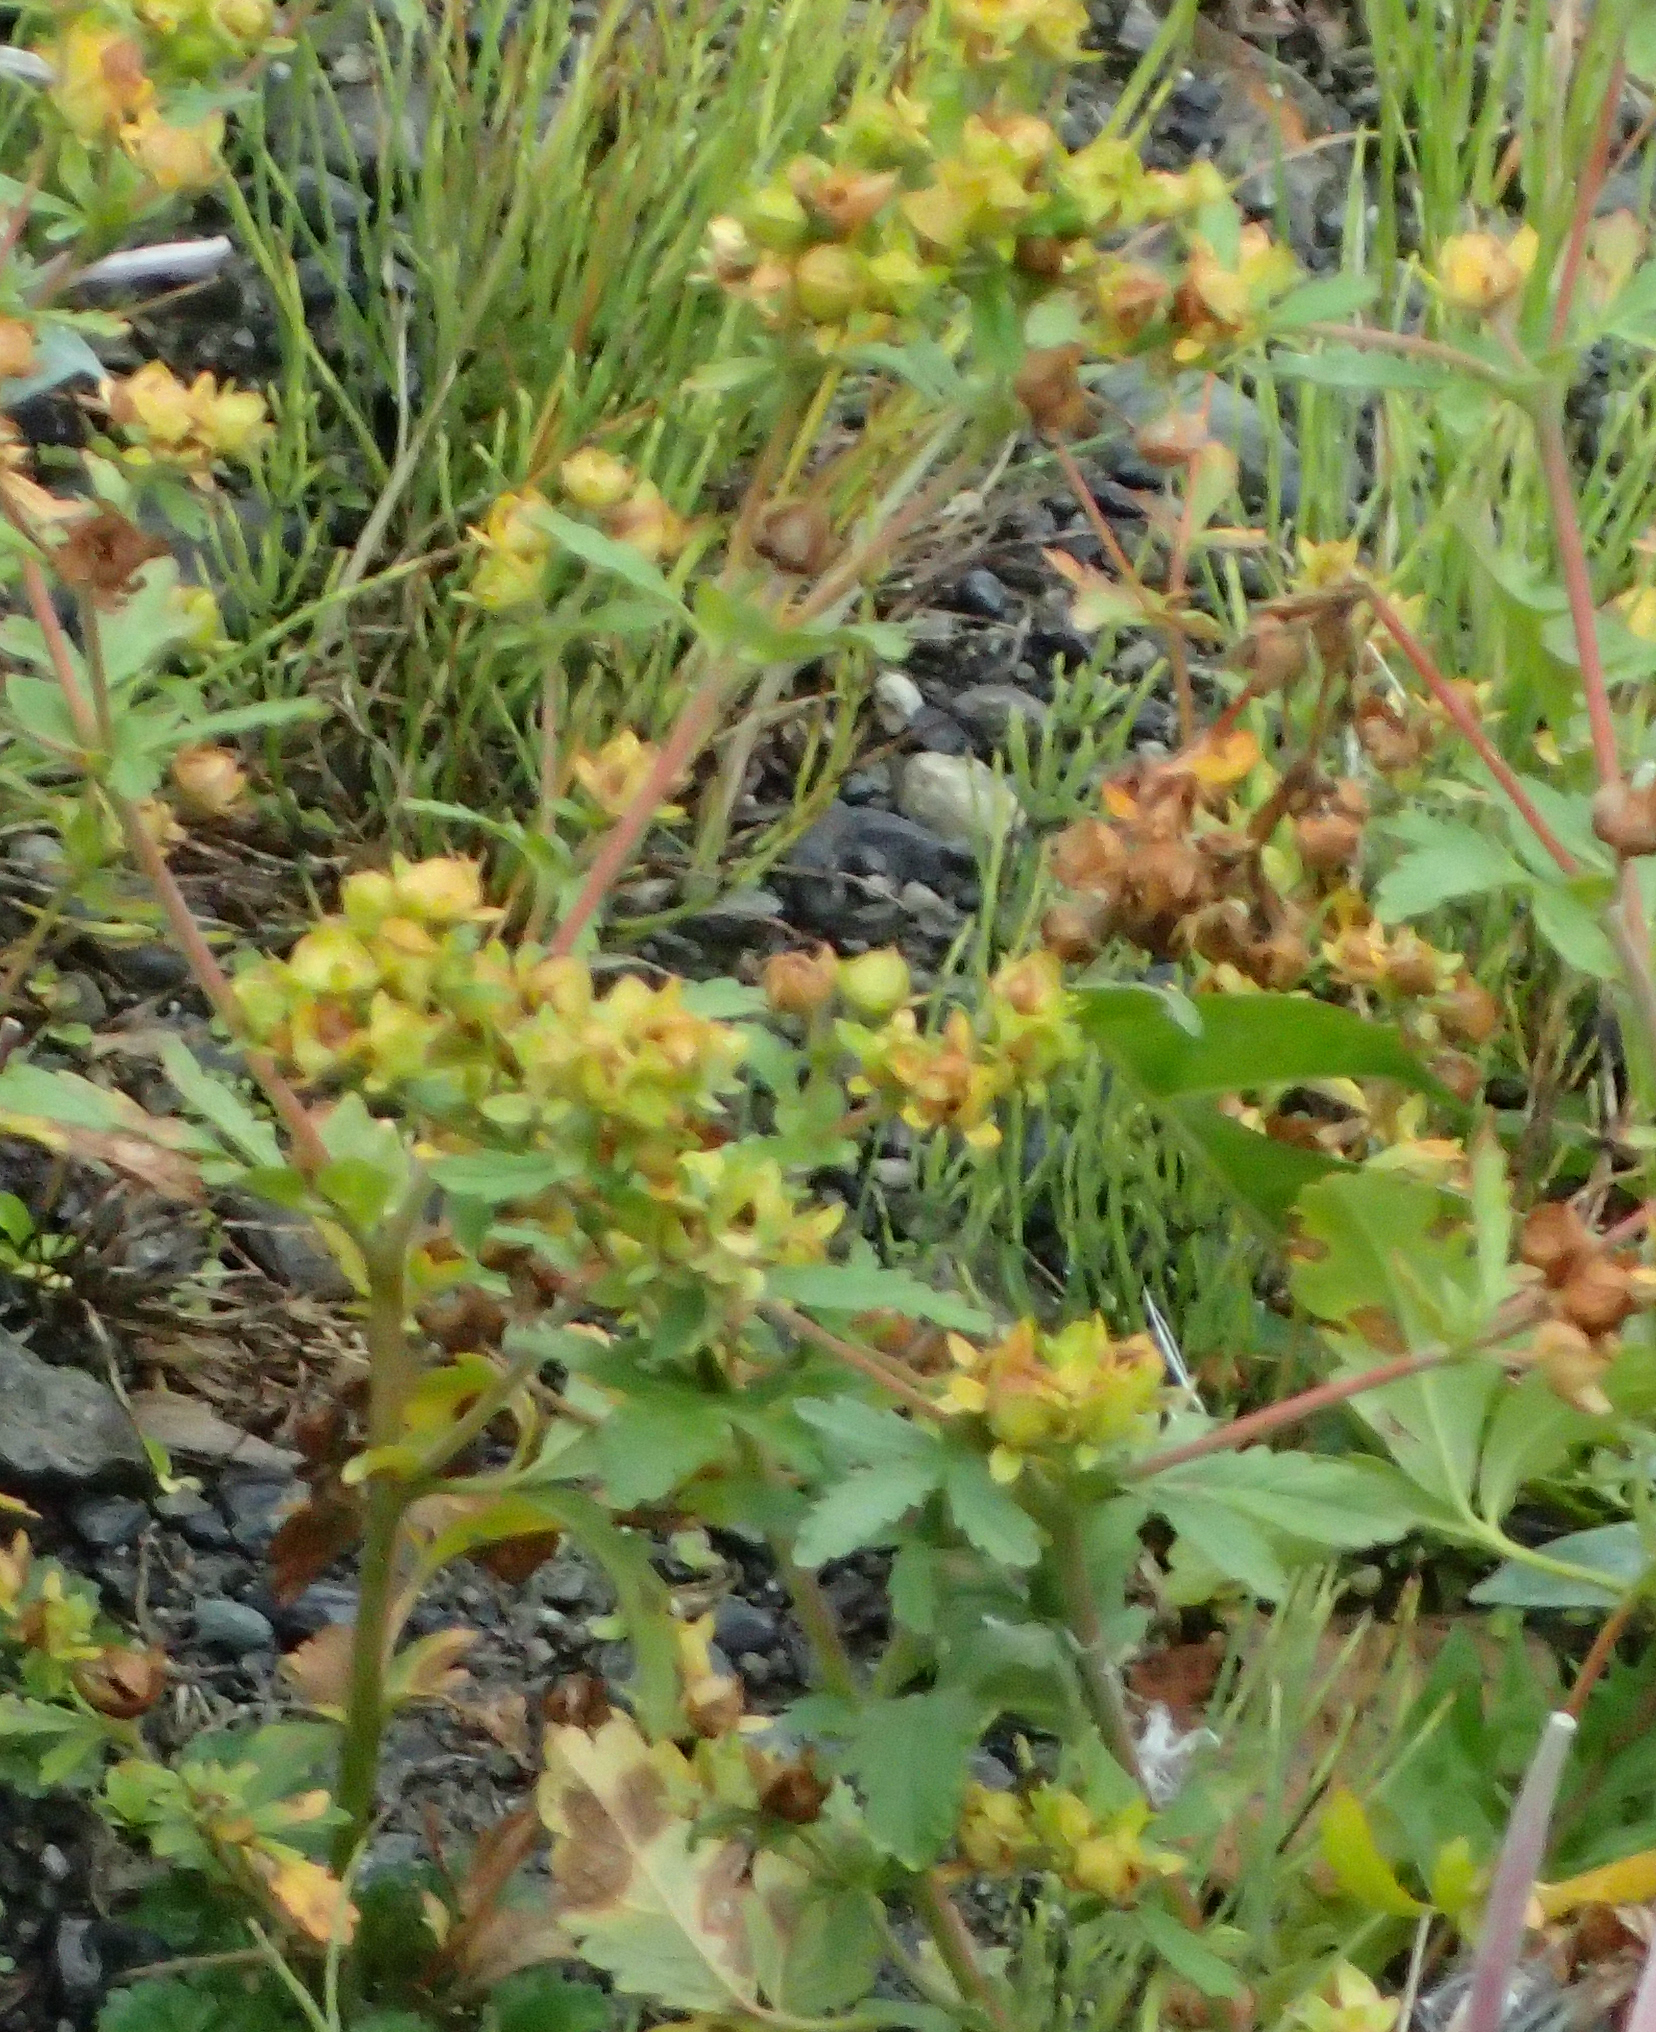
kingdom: Plantae
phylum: Tracheophyta
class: Magnoliopsida
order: Rosales
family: Rosaceae
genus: Potentilla
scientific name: Potentilla norvegica
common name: Ternate-leaved cinquefoil
